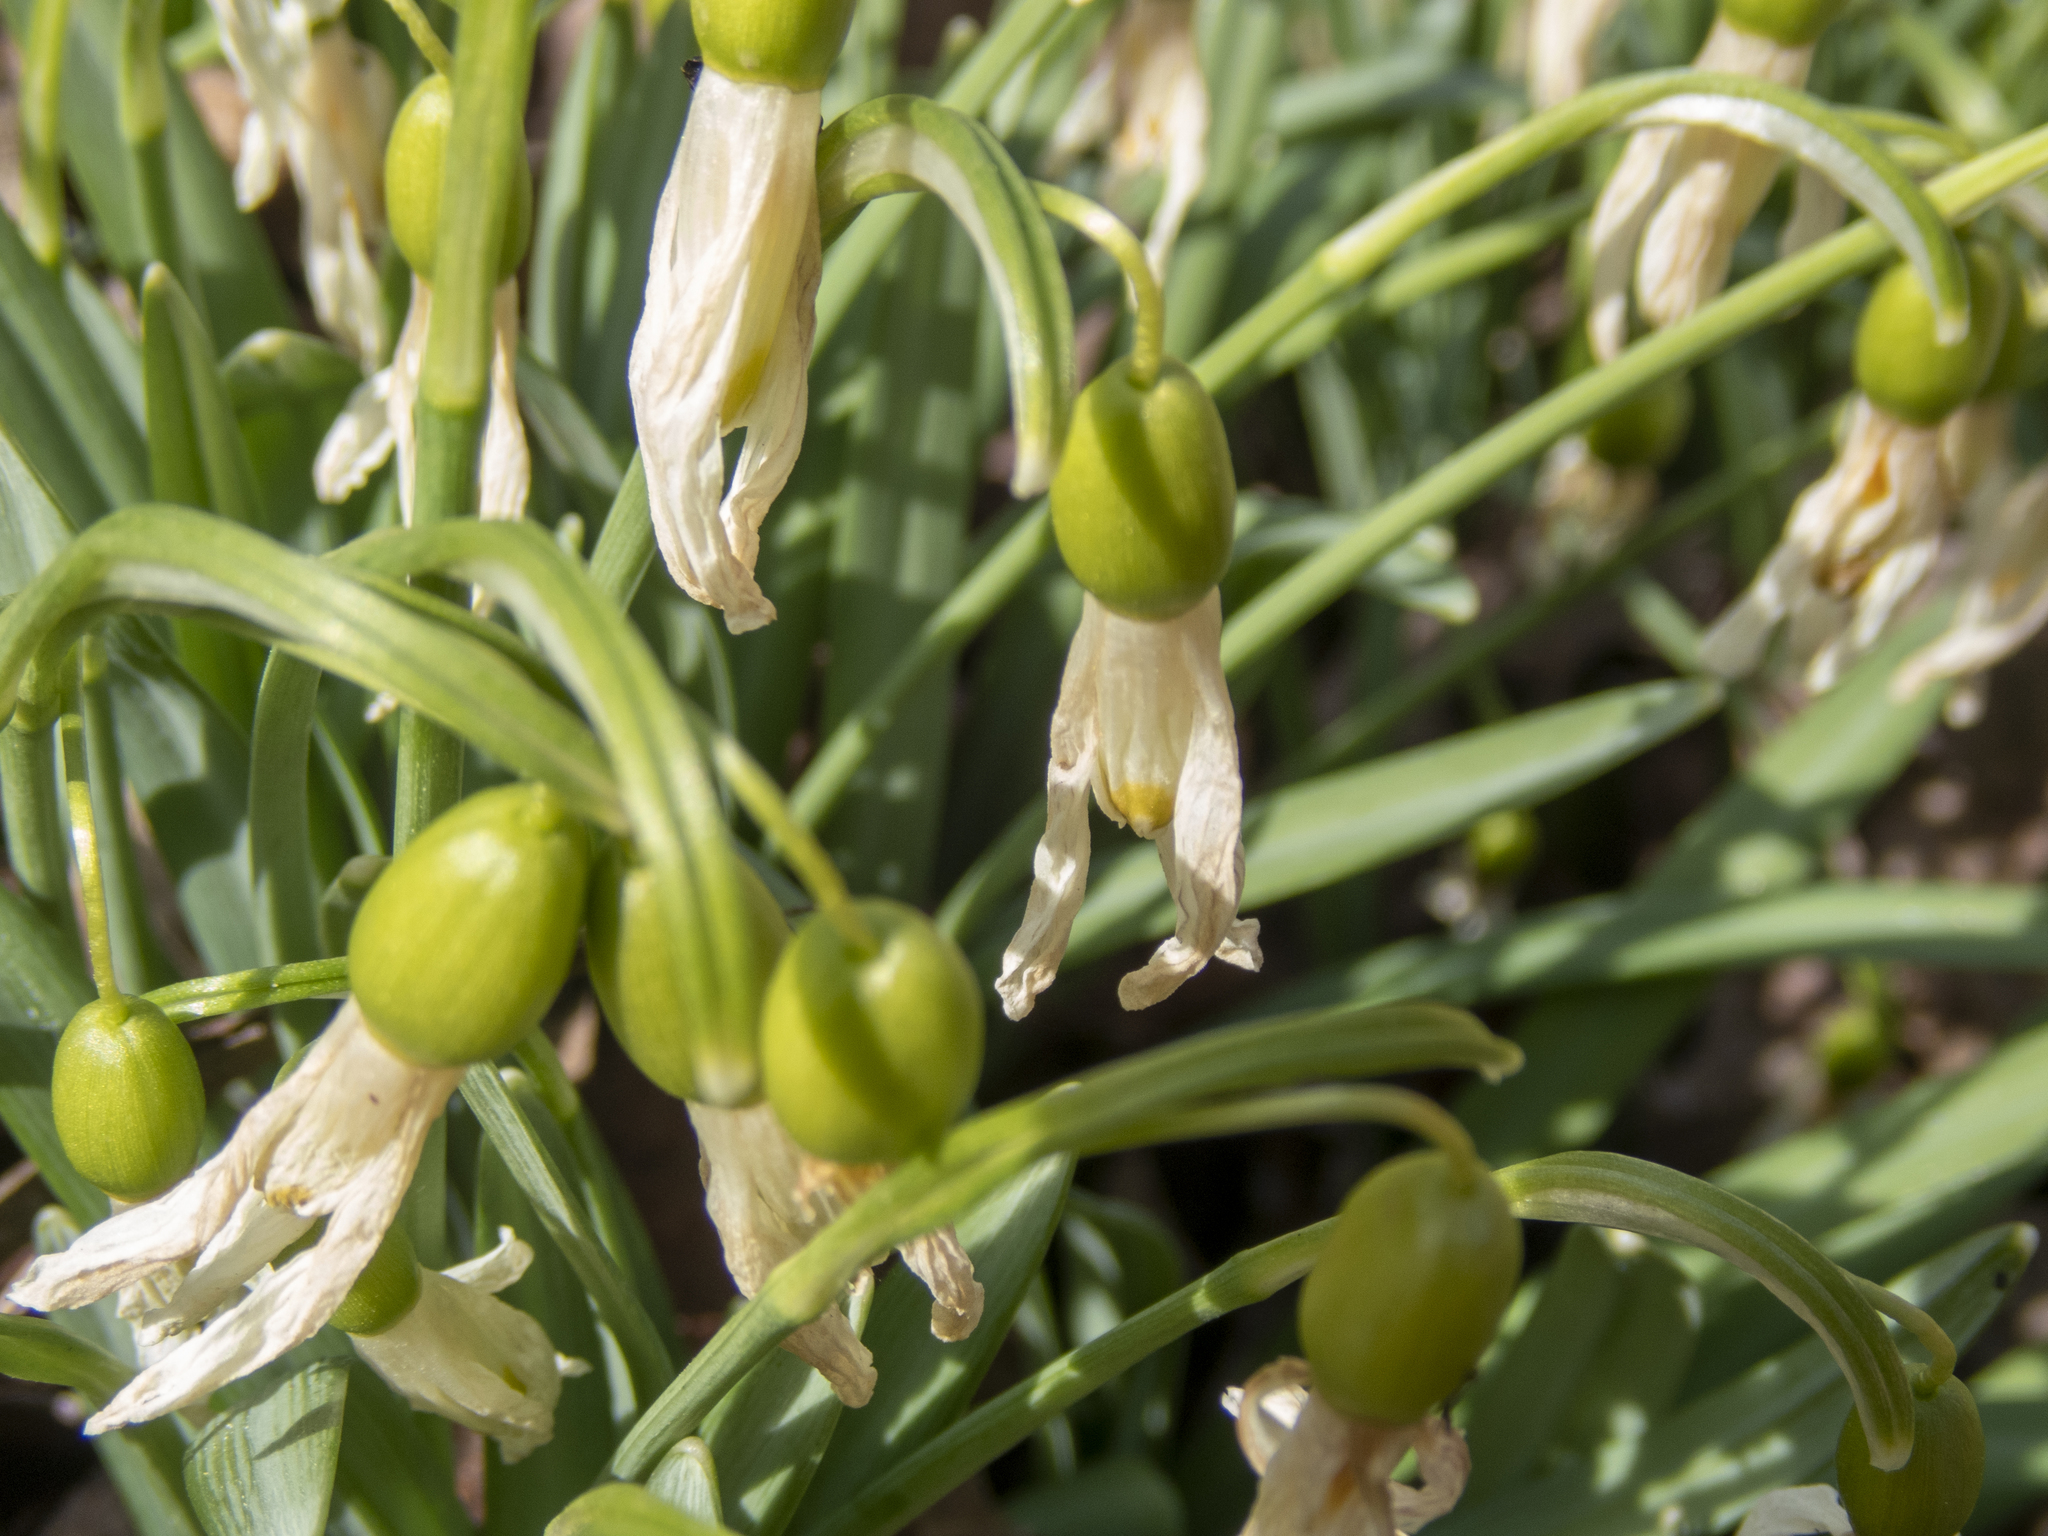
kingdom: Plantae
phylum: Tracheophyta
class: Liliopsida
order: Asparagales
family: Amaryllidaceae
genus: Galanthus
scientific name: Galanthus nivalis
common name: Snowdrop
